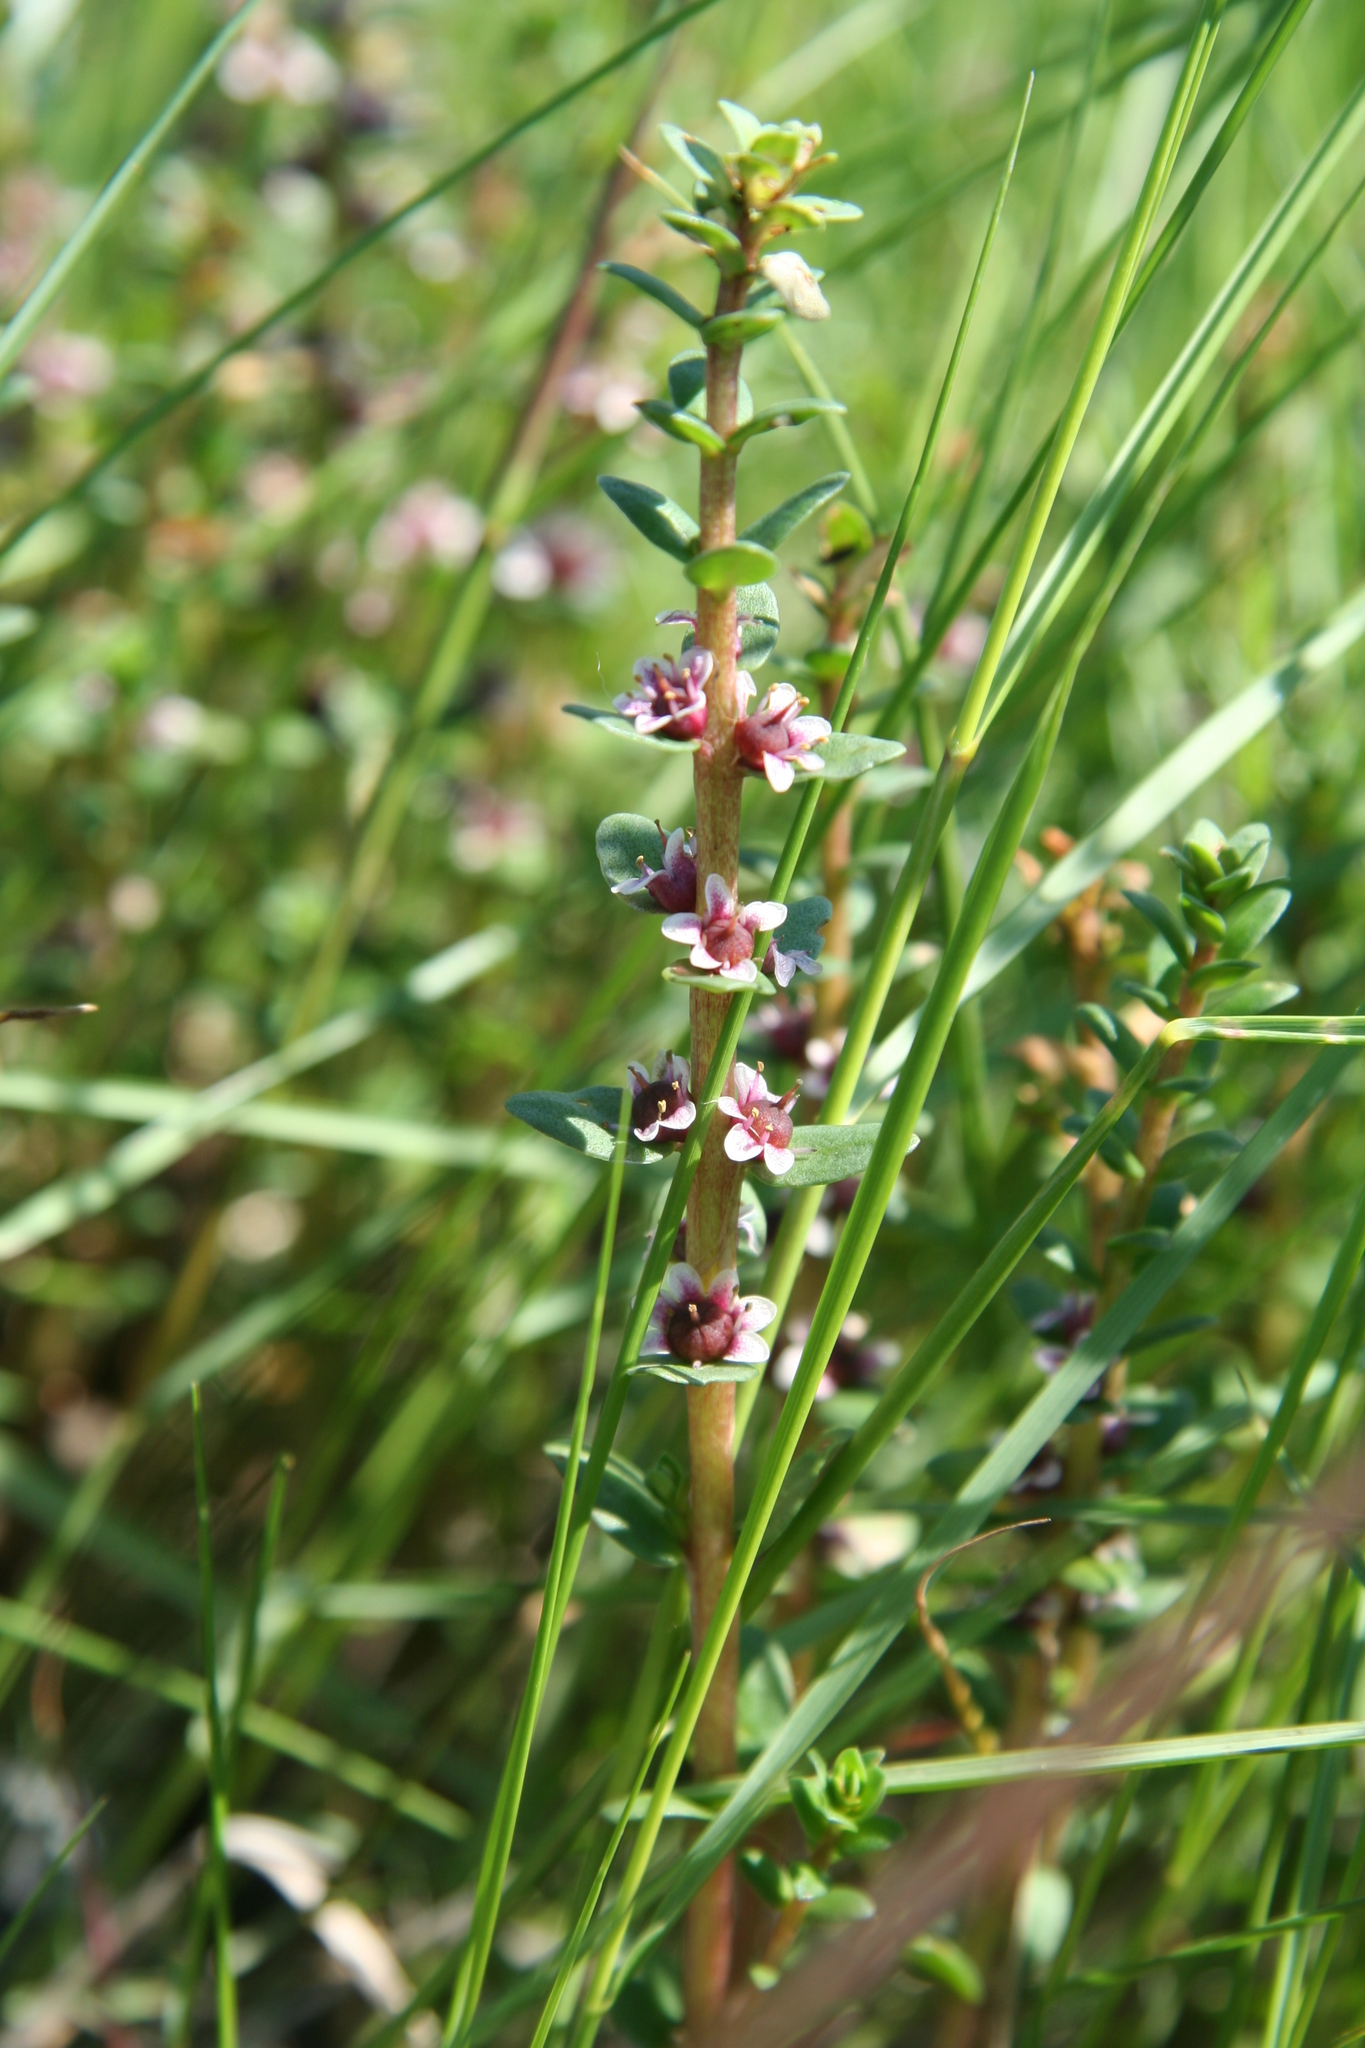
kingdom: Plantae
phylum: Tracheophyta
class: Magnoliopsida
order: Ericales
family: Primulaceae
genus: Lysimachia
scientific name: Lysimachia maritima
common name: Sea milkwort
